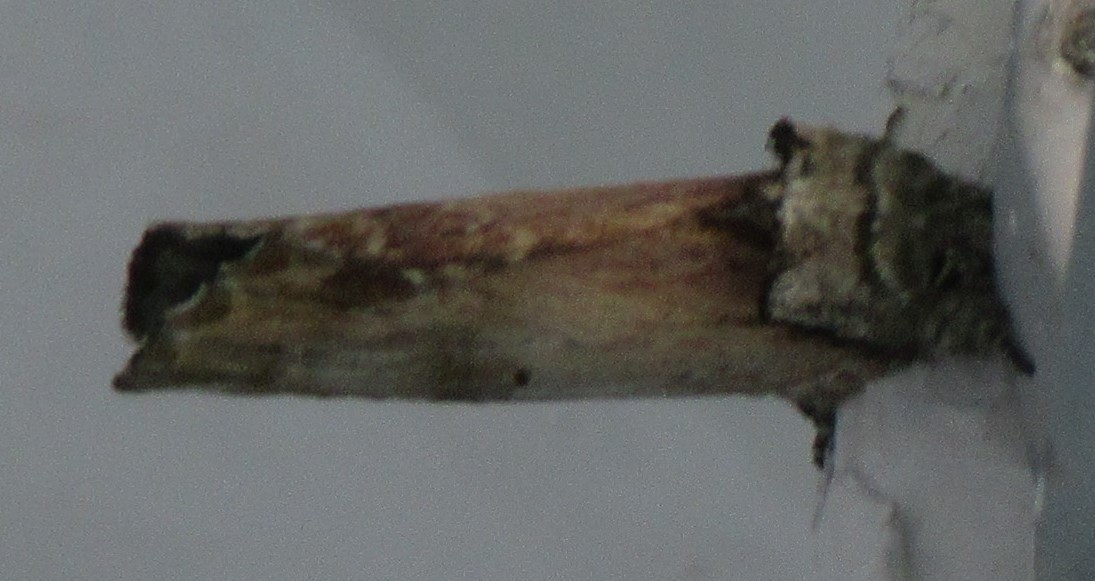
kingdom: Animalia
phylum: Arthropoda
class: Insecta
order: Lepidoptera
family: Notodontidae
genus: Schizura
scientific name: Schizura badia
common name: Chestnut schizura
